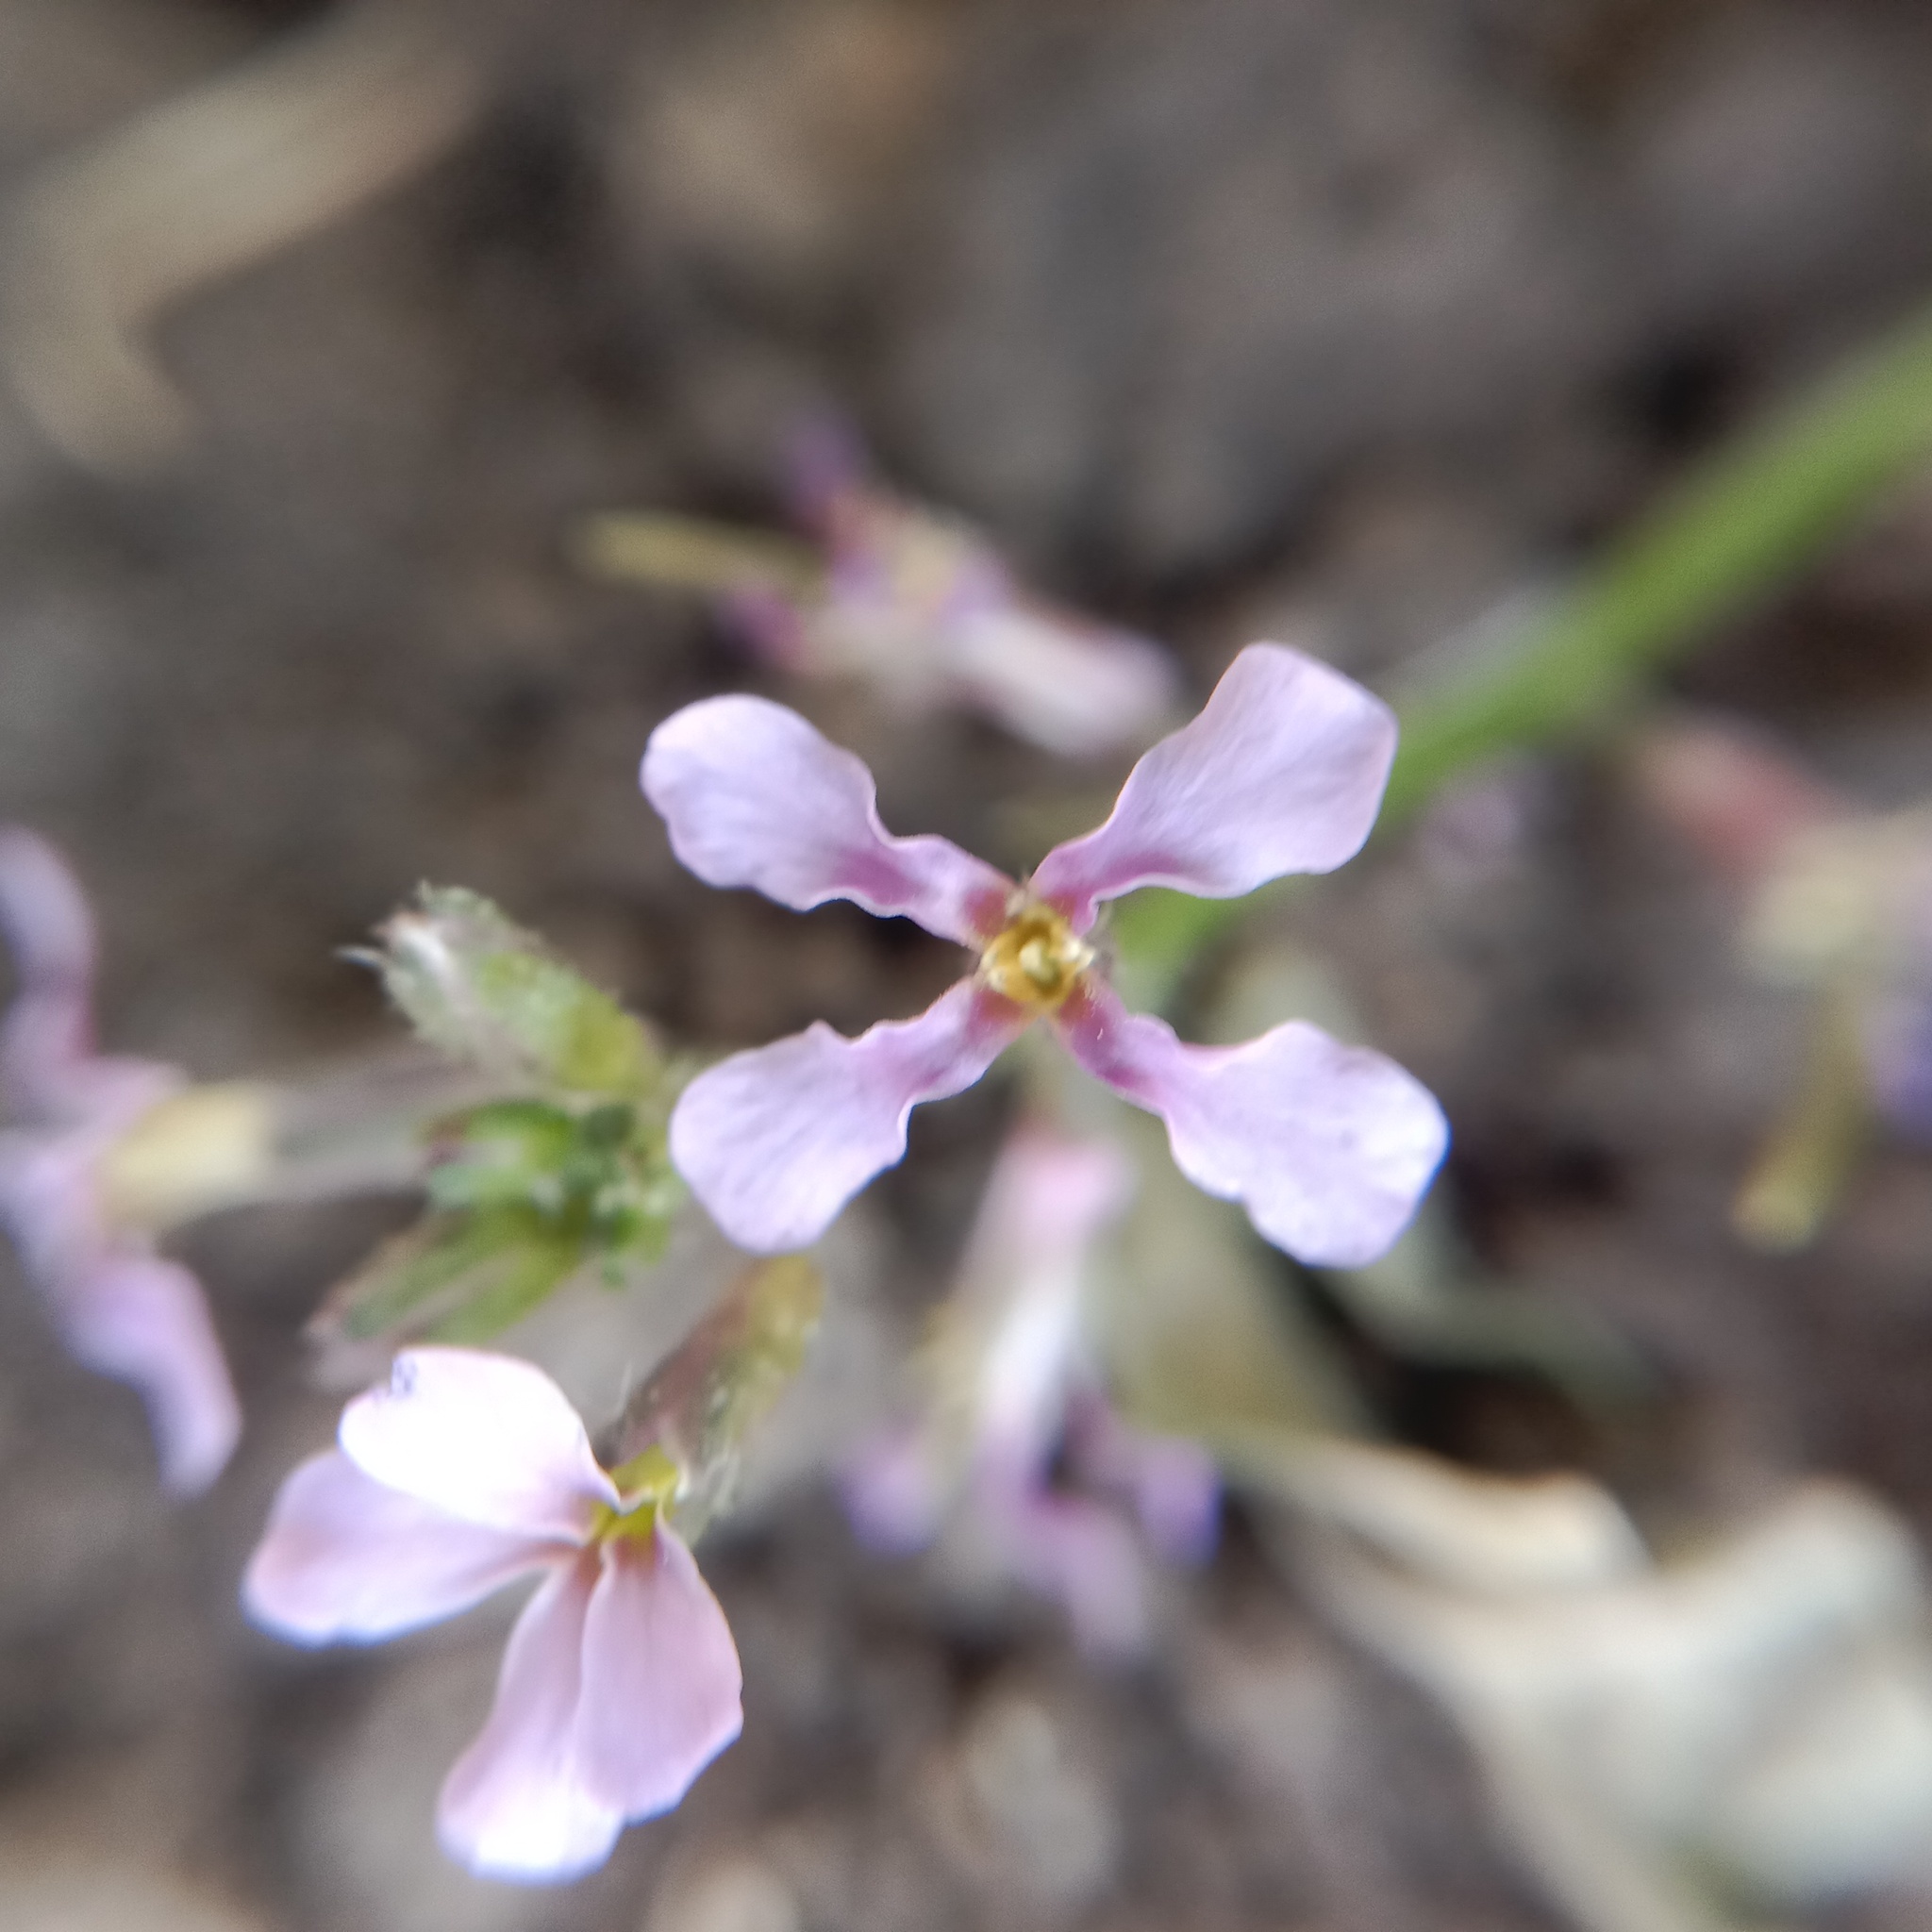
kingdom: Plantae
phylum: Tracheophyta
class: Magnoliopsida
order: Brassicales
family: Brassicaceae
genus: Chorispora
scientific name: Chorispora tenella
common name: Crossflower
